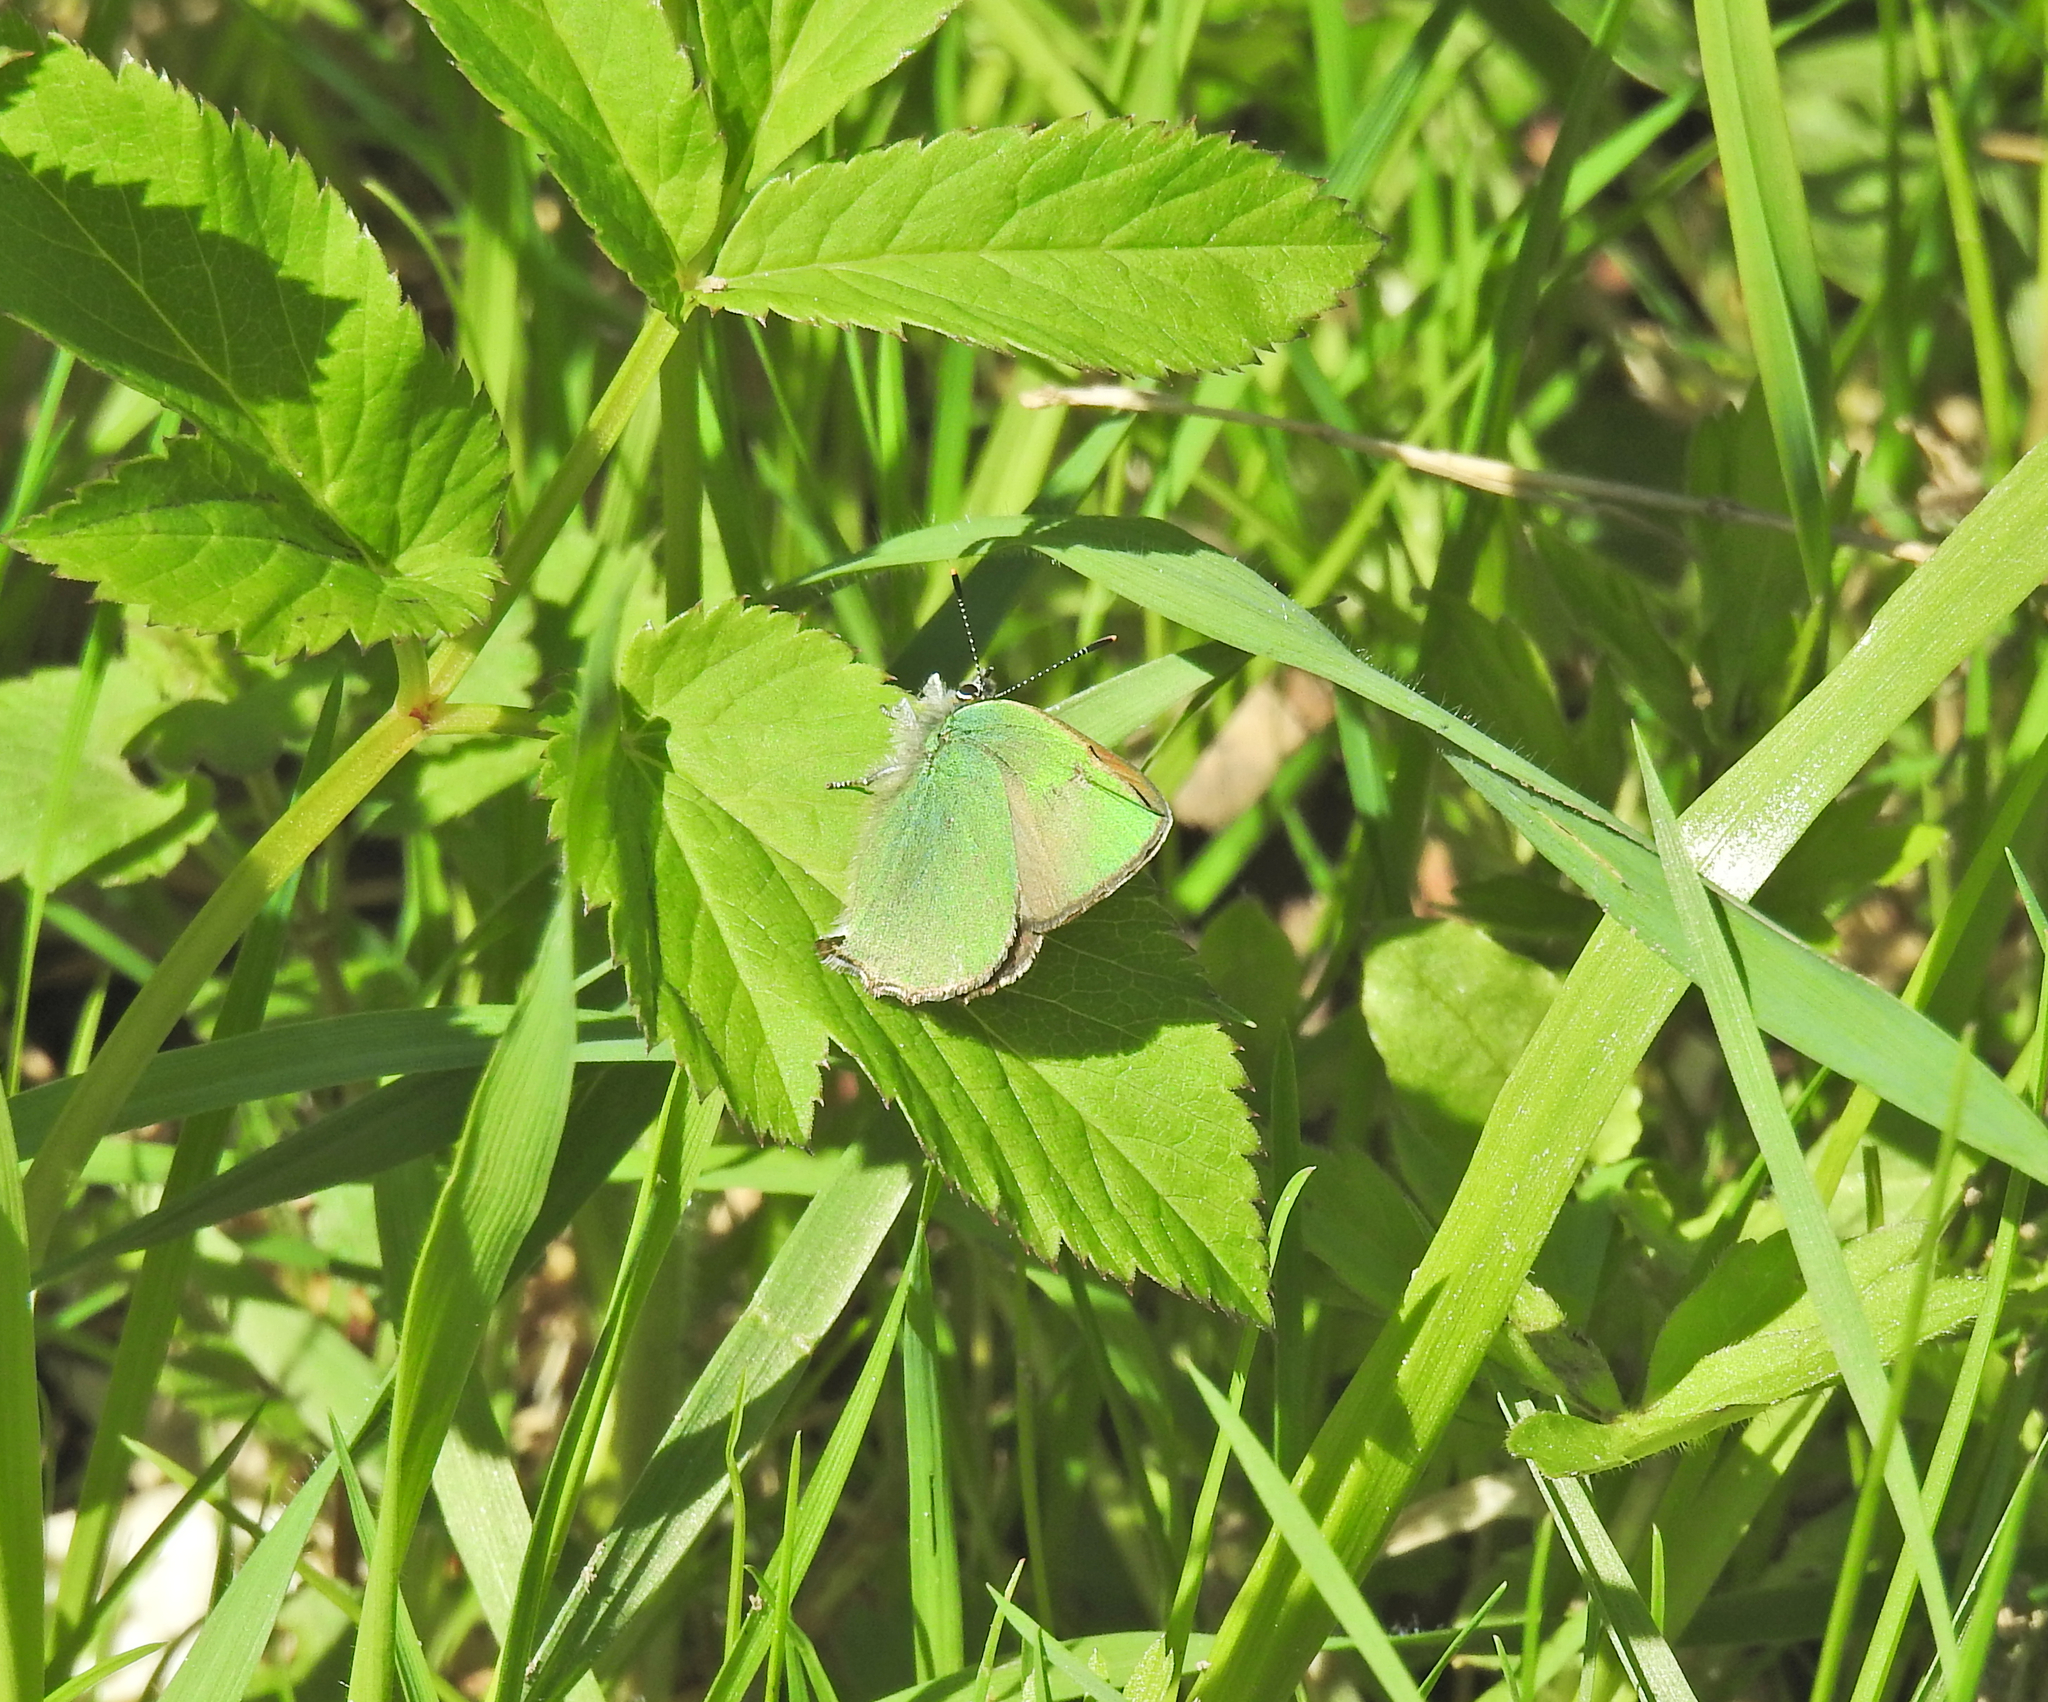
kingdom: Animalia
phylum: Arthropoda
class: Insecta
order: Lepidoptera
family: Lycaenidae
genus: Callophrys
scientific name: Callophrys rubi
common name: Green hairstreak
